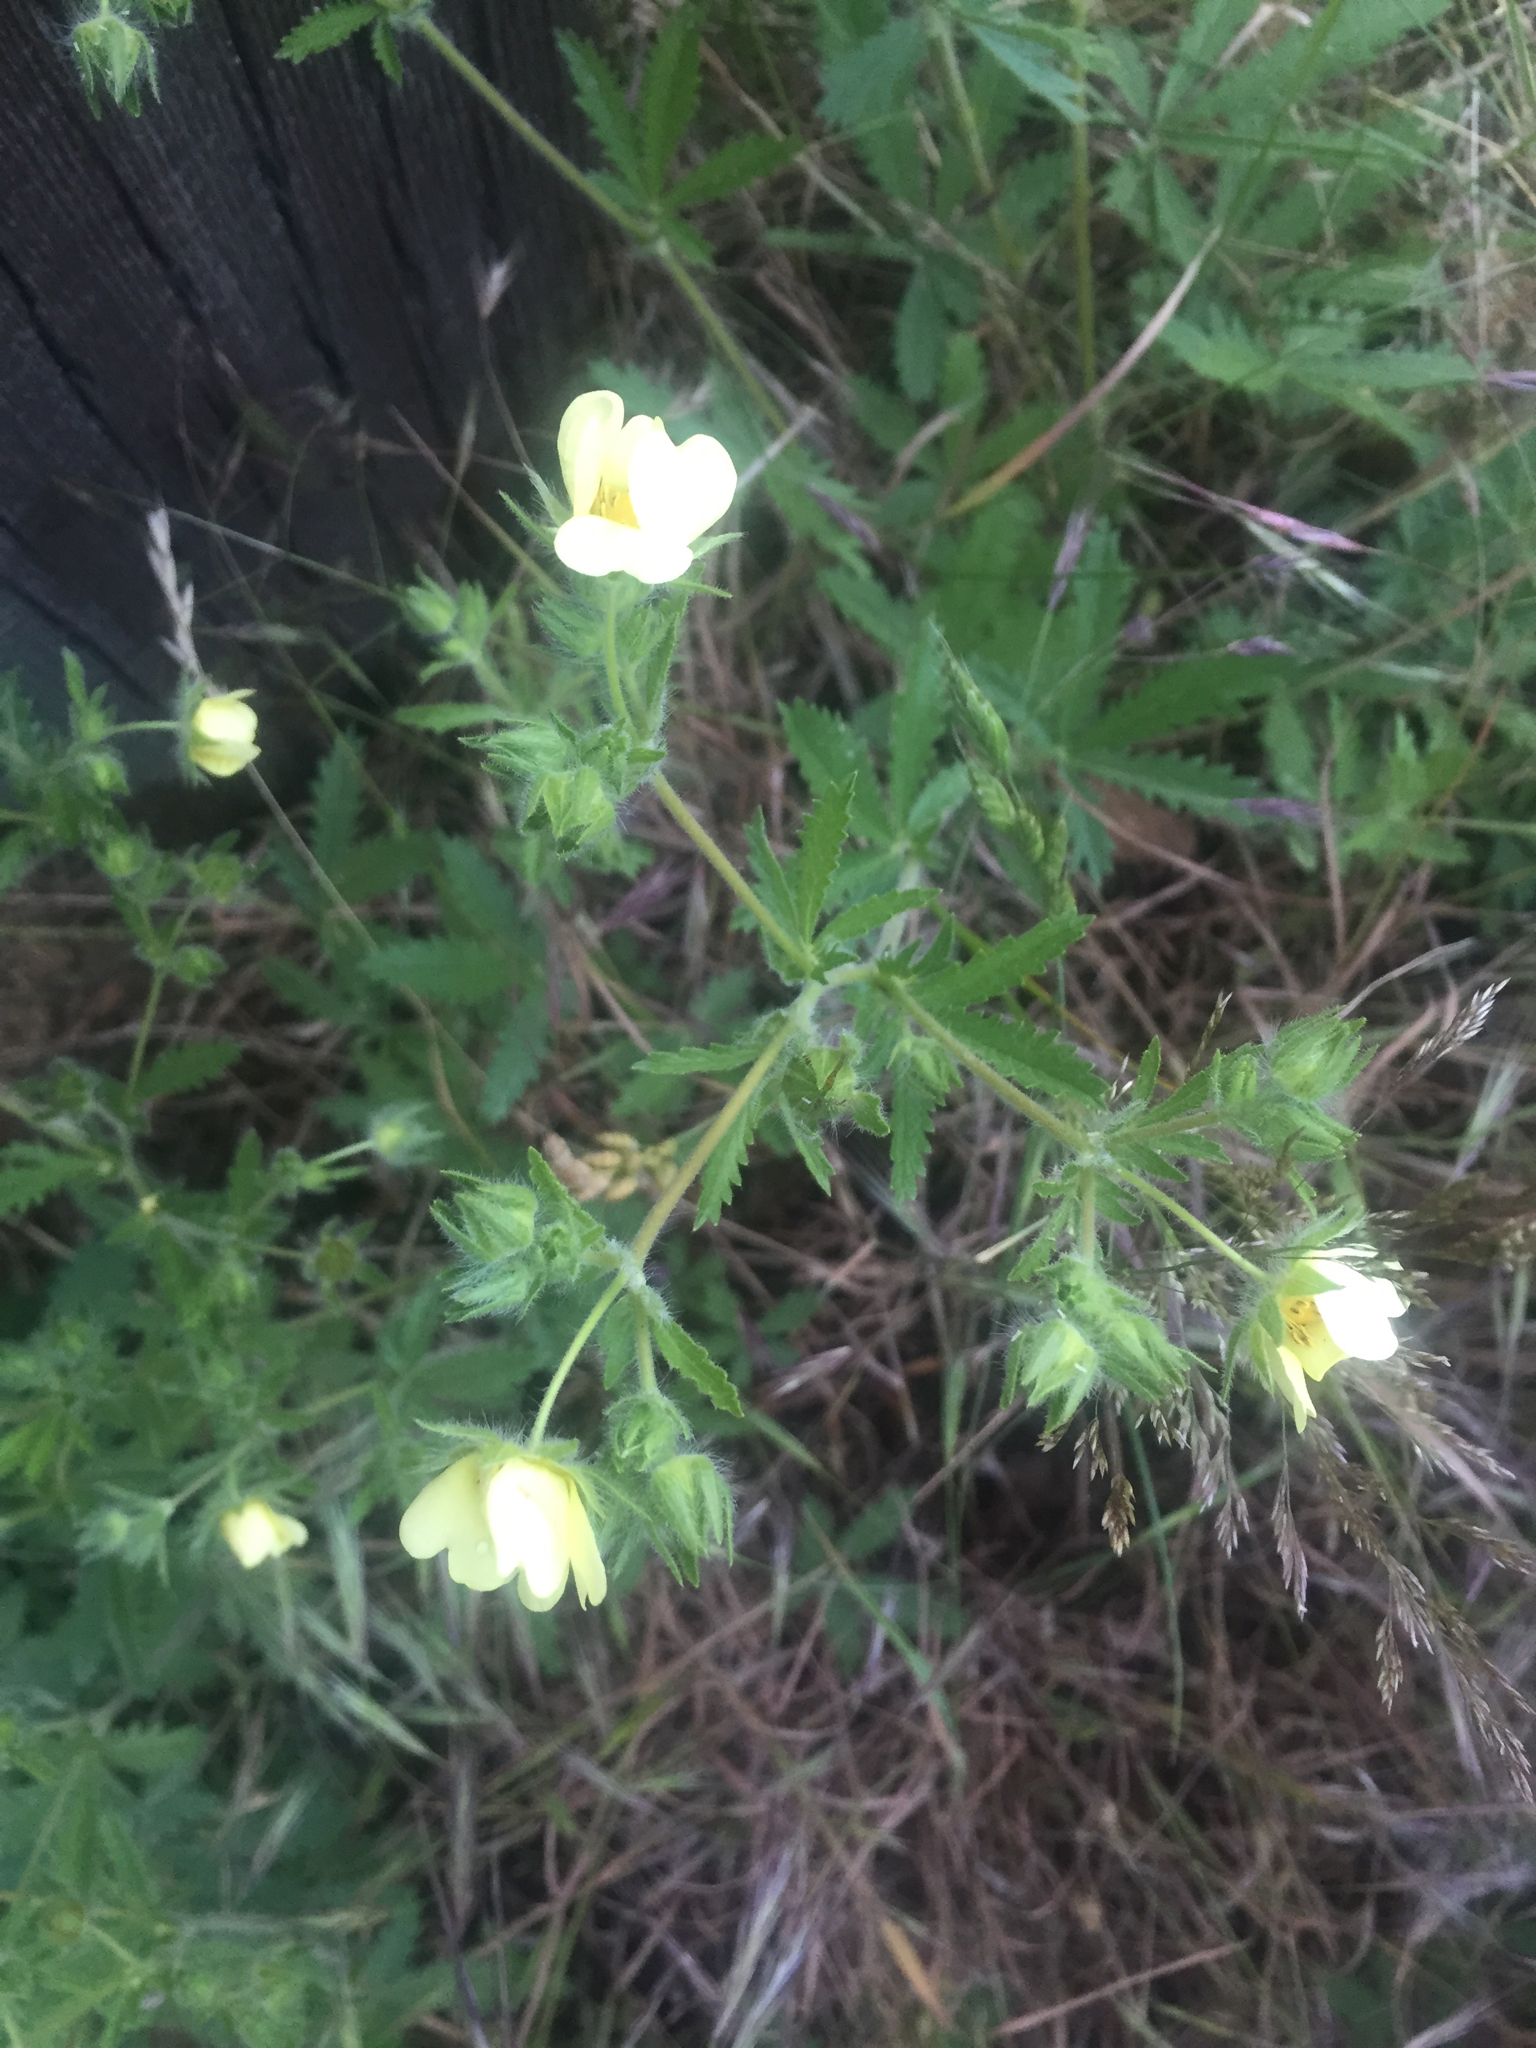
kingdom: Plantae
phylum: Tracheophyta
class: Magnoliopsida
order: Rosales
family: Rosaceae
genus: Potentilla
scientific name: Potentilla recta
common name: Sulphur cinquefoil
